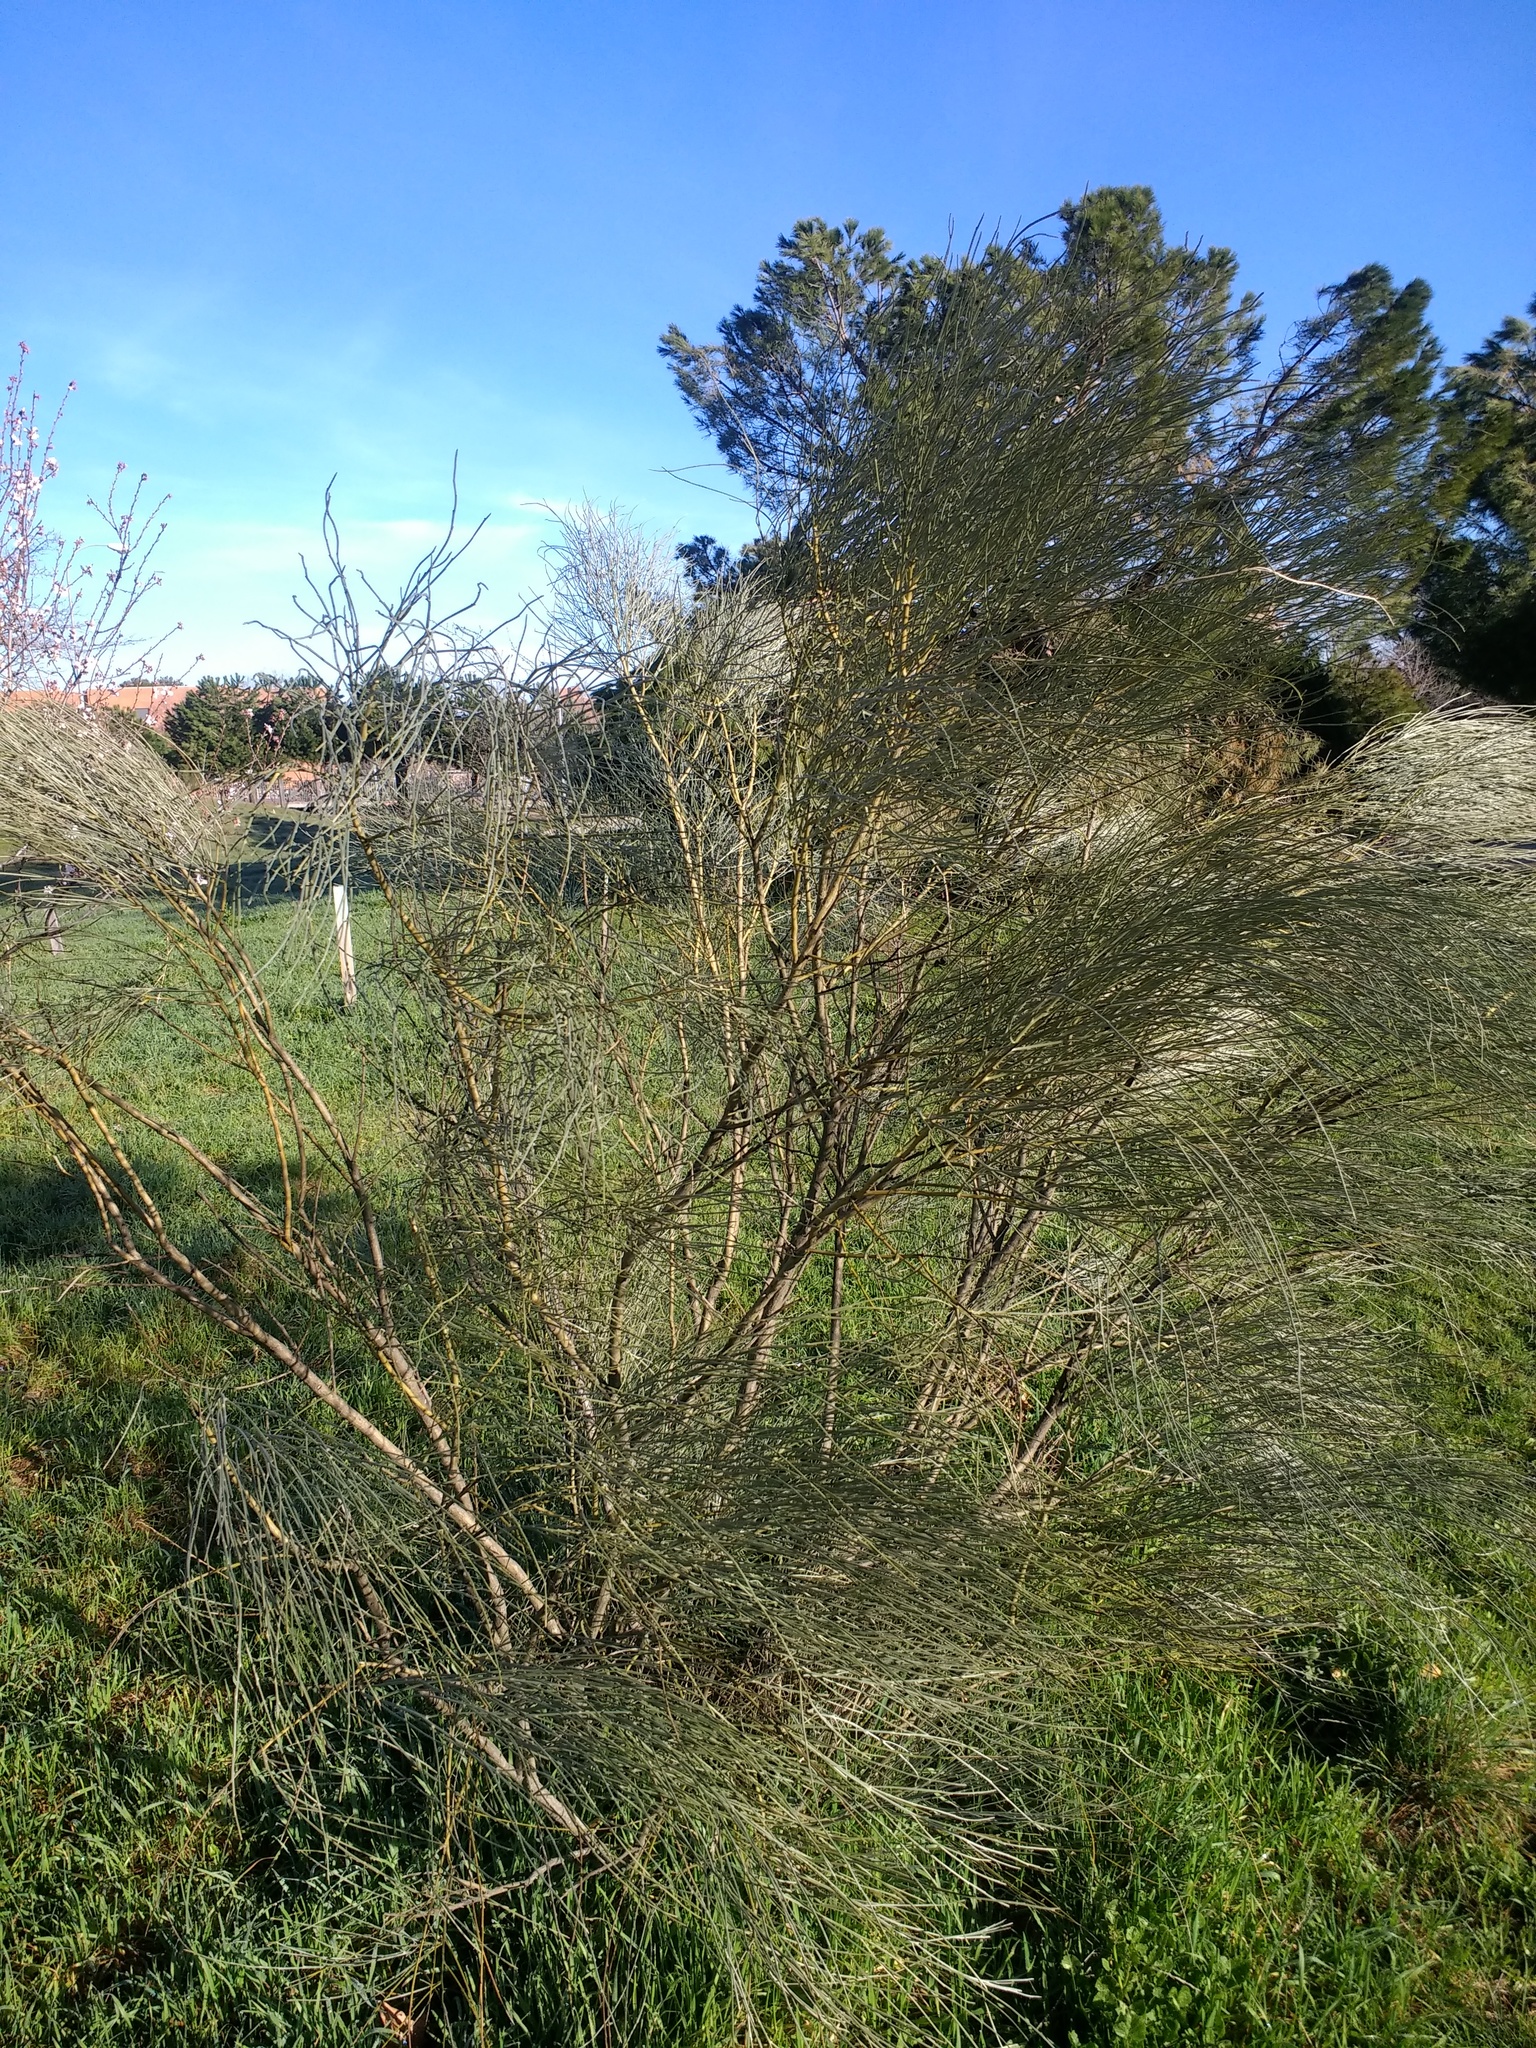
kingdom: Plantae
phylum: Tracheophyta
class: Magnoliopsida
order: Fabales
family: Fabaceae
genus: Retama
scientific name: Retama sphaerocarpa
